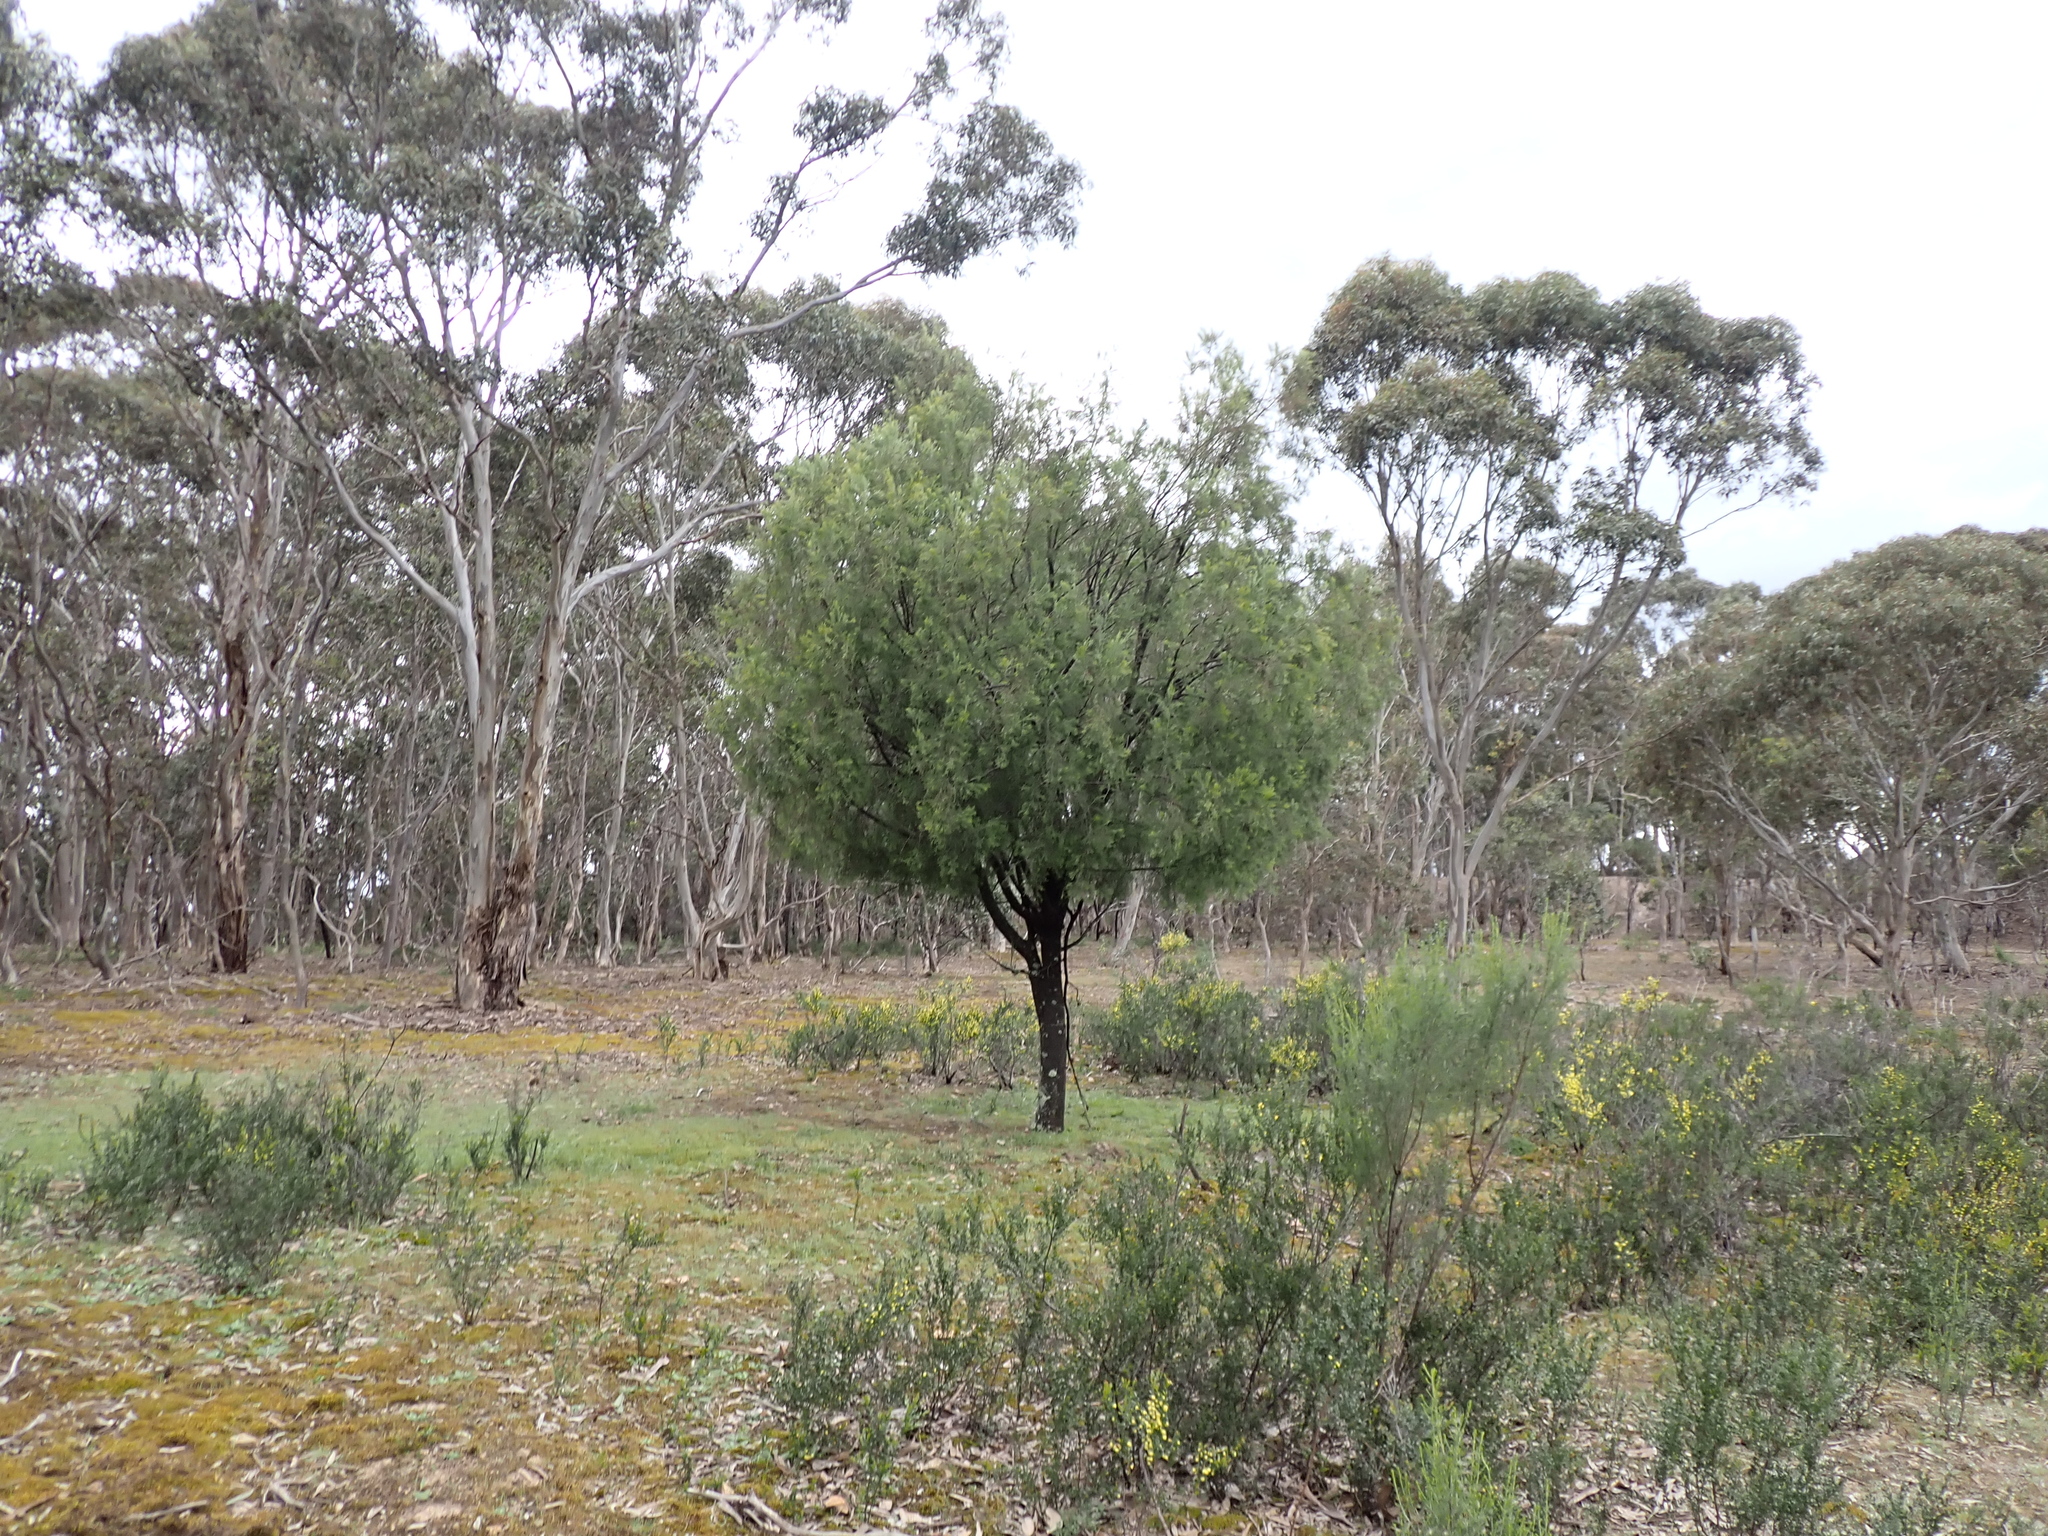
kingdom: Plantae
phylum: Tracheophyta
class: Magnoliopsida
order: Santalales
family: Santalaceae
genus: Exocarpos
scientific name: Exocarpos cupressiformis
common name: Cherry ballart
